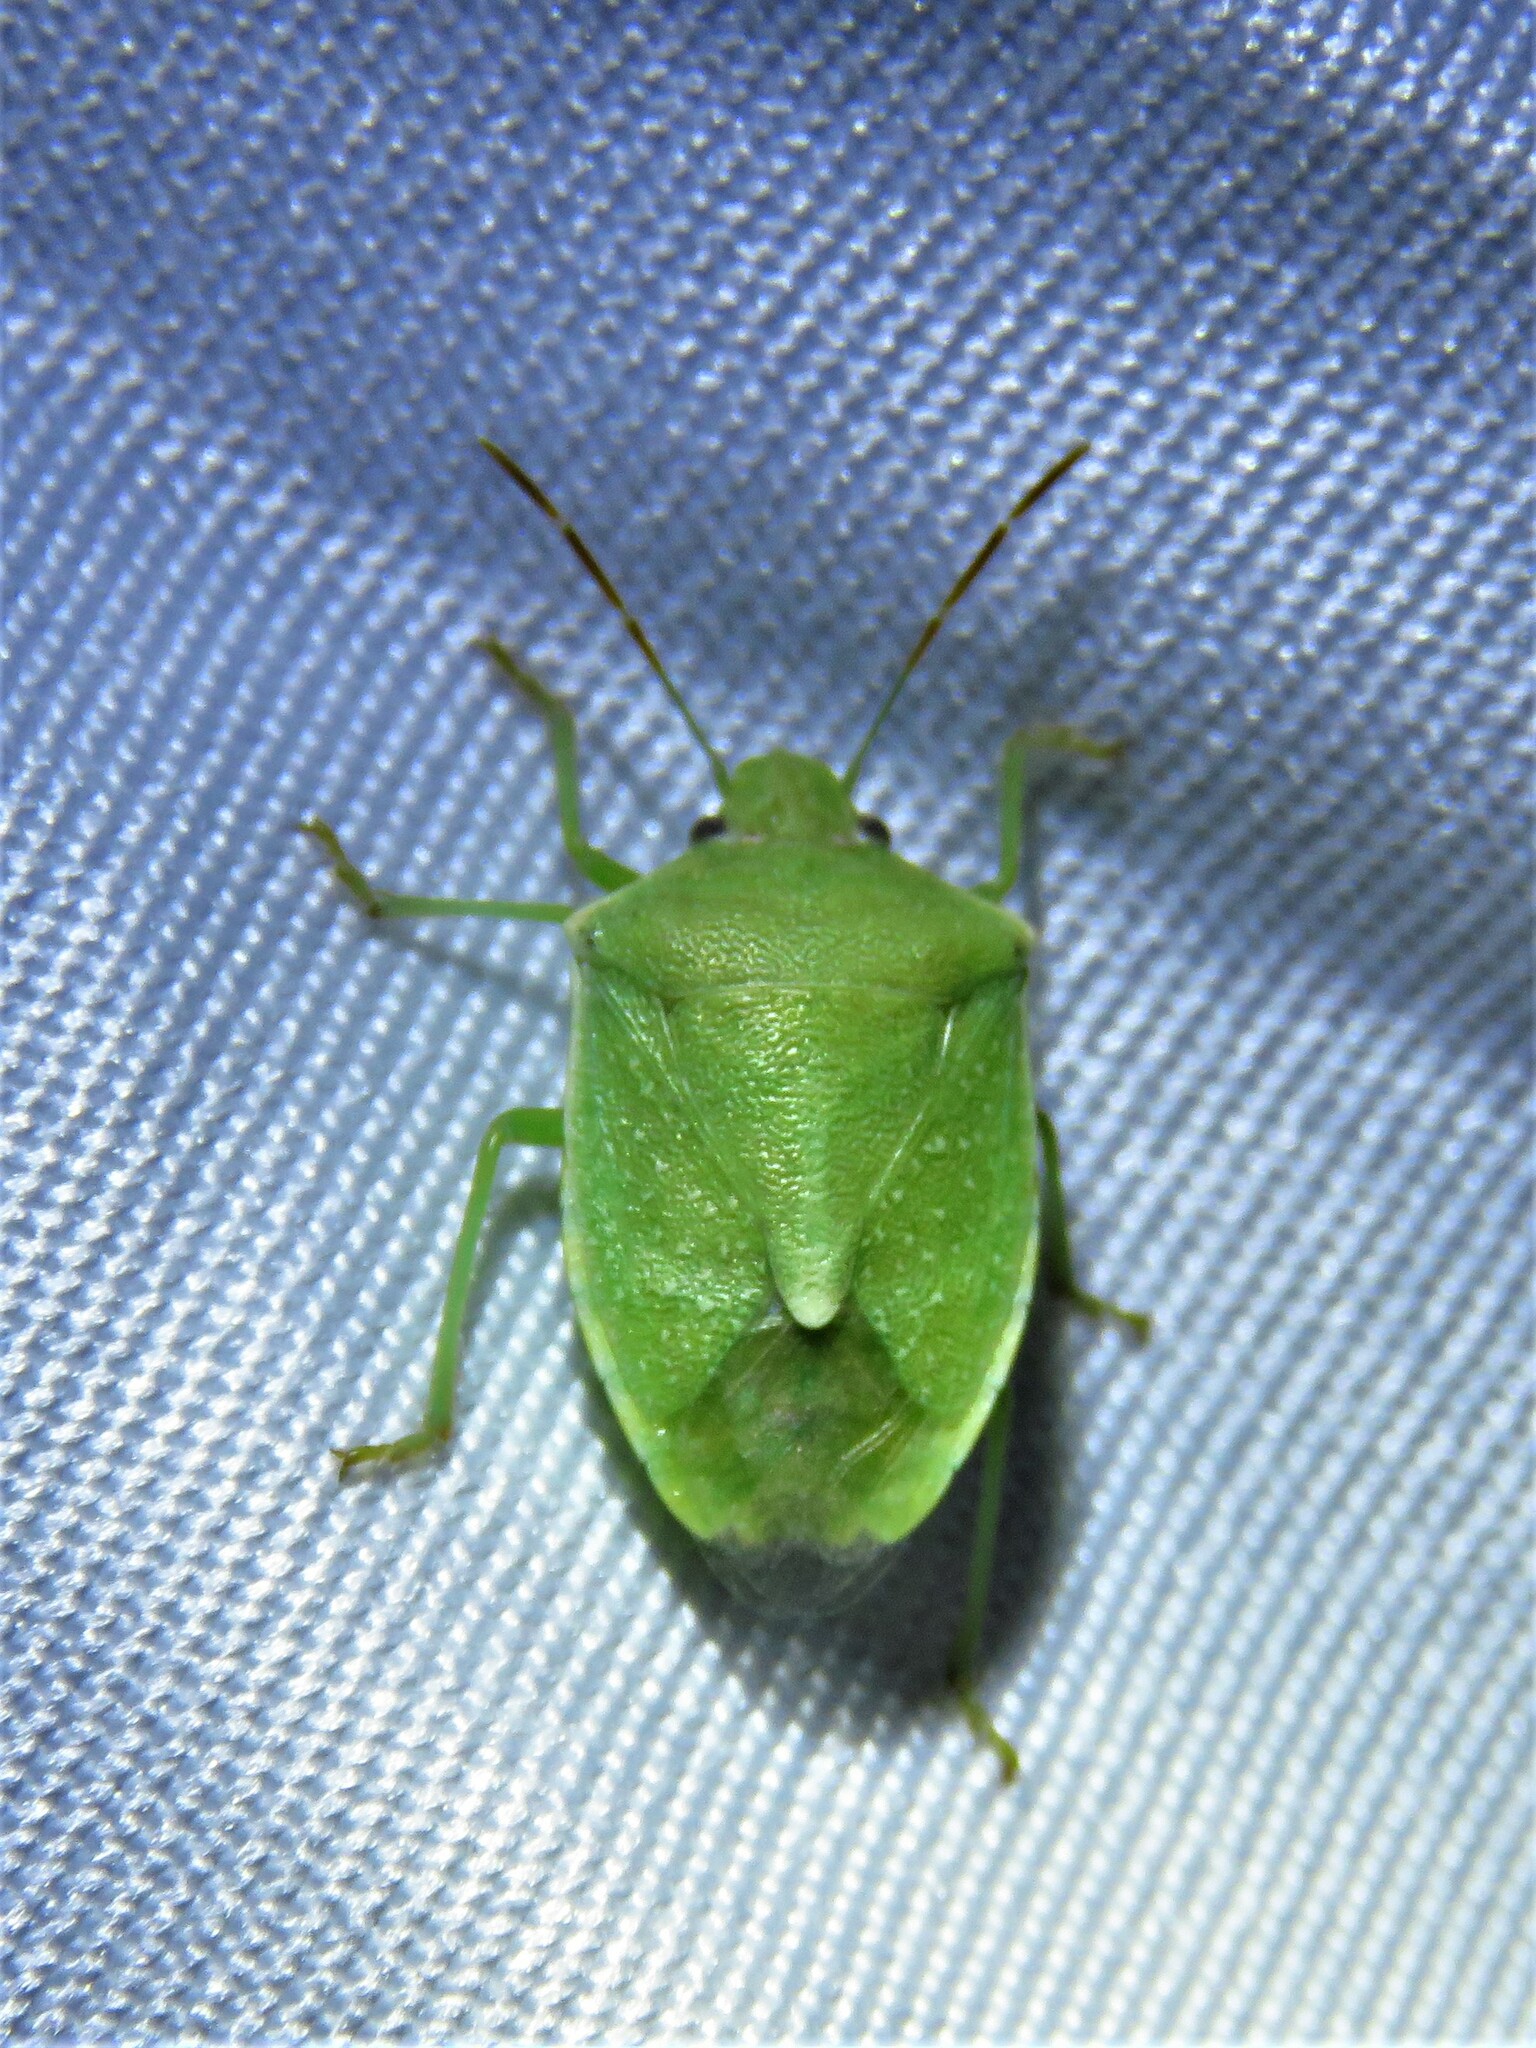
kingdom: Animalia
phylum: Arthropoda
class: Insecta
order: Hemiptera
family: Pentatomidae
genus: Thyanta
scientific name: Thyanta custator
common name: Stink bug
